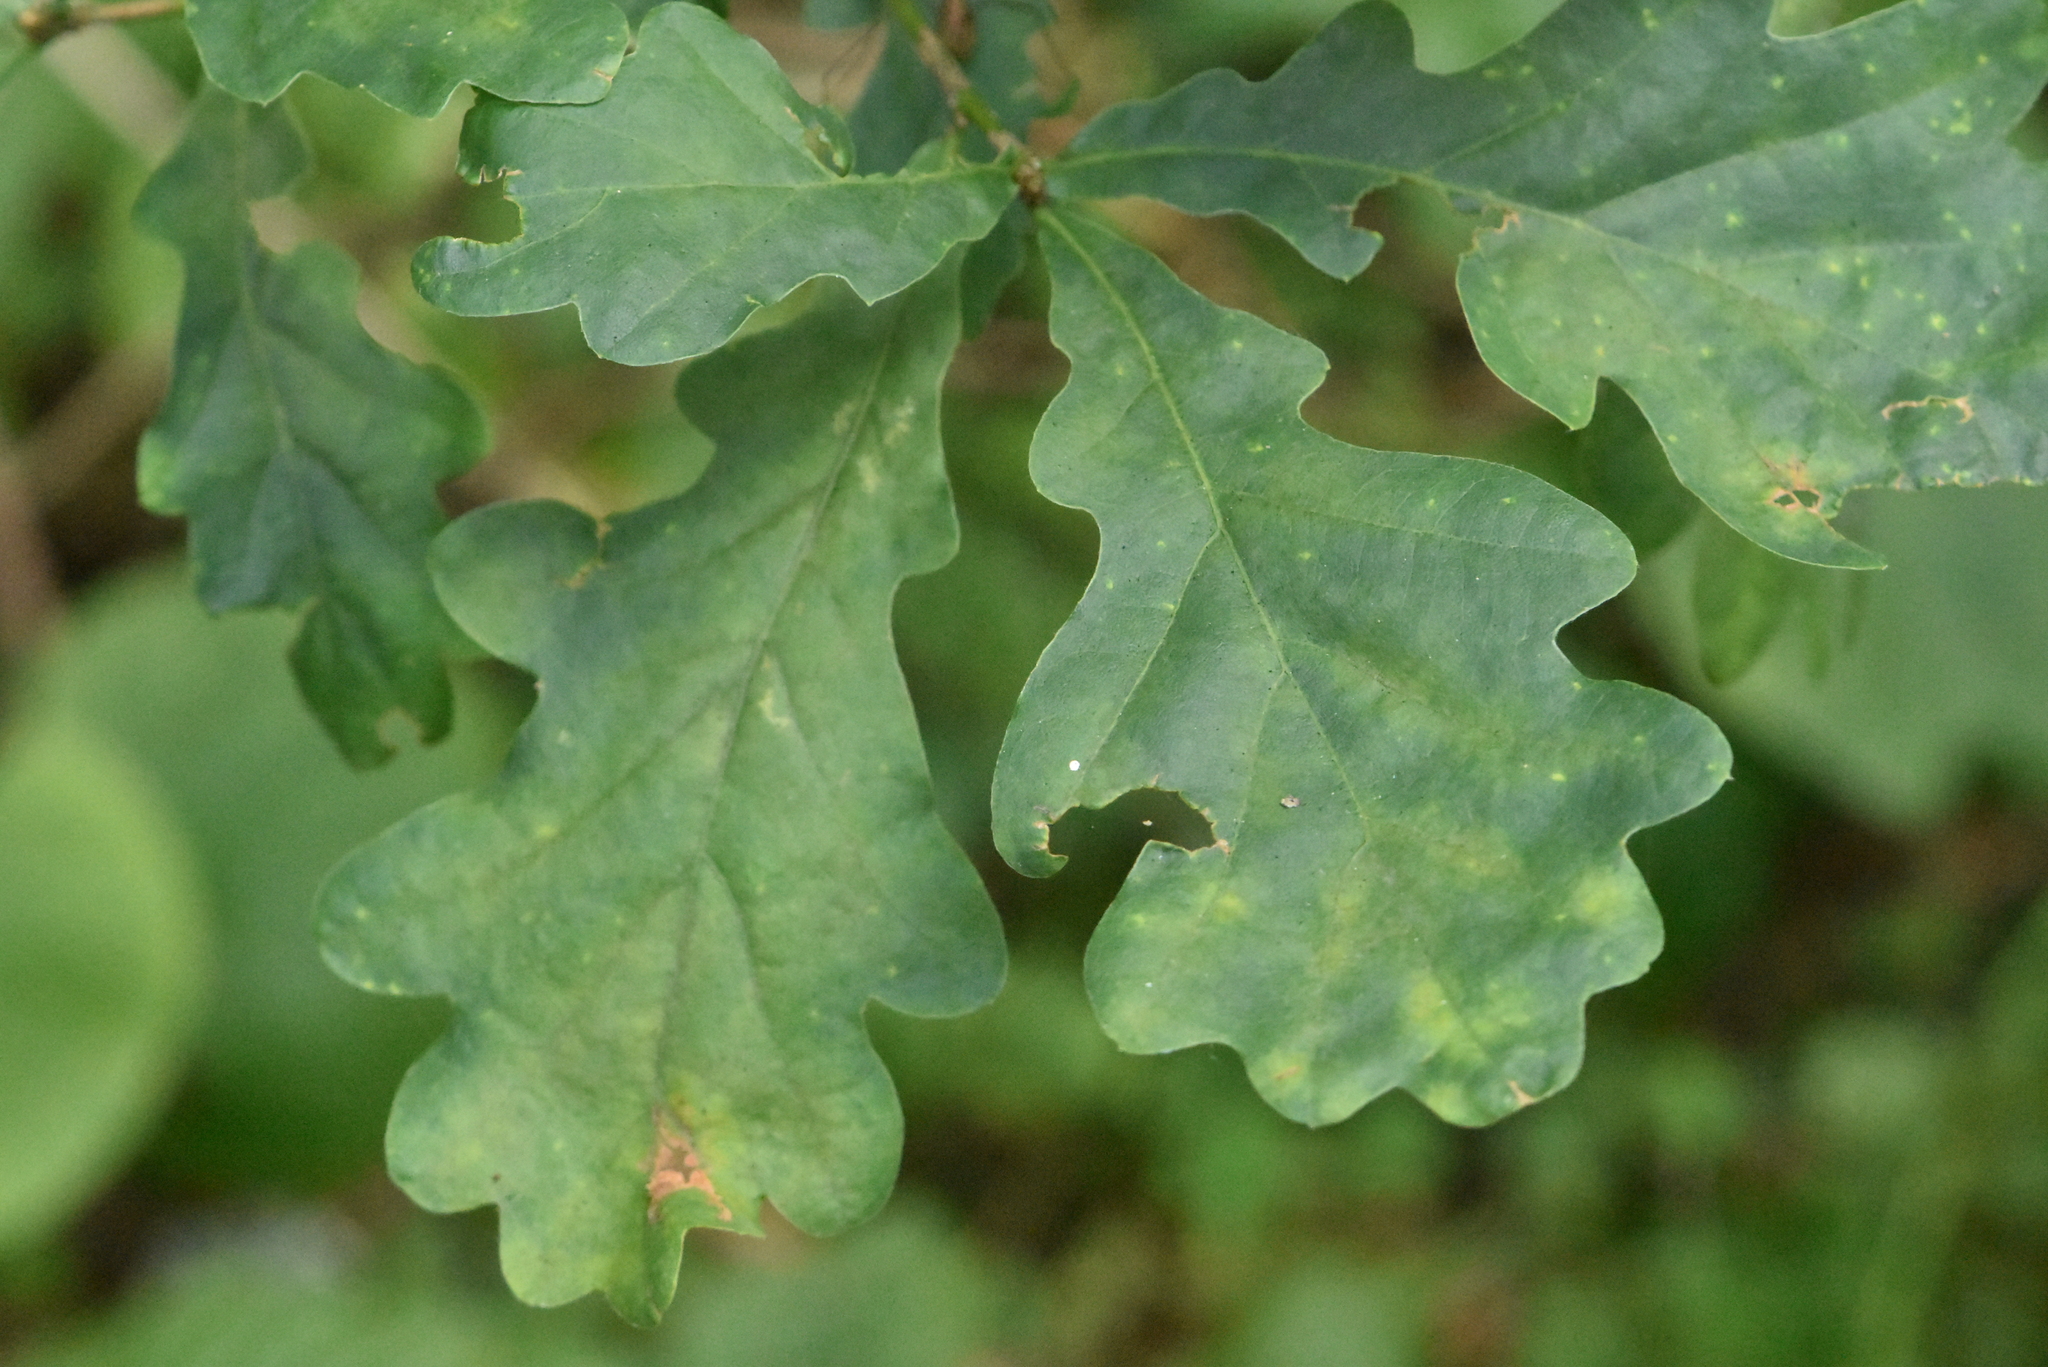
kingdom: Plantae
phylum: Tracheophyta
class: Magnoliopsida
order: Fagales
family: Fagaceae
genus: Quercus
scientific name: Quercus robur
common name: Pedunculate oak
